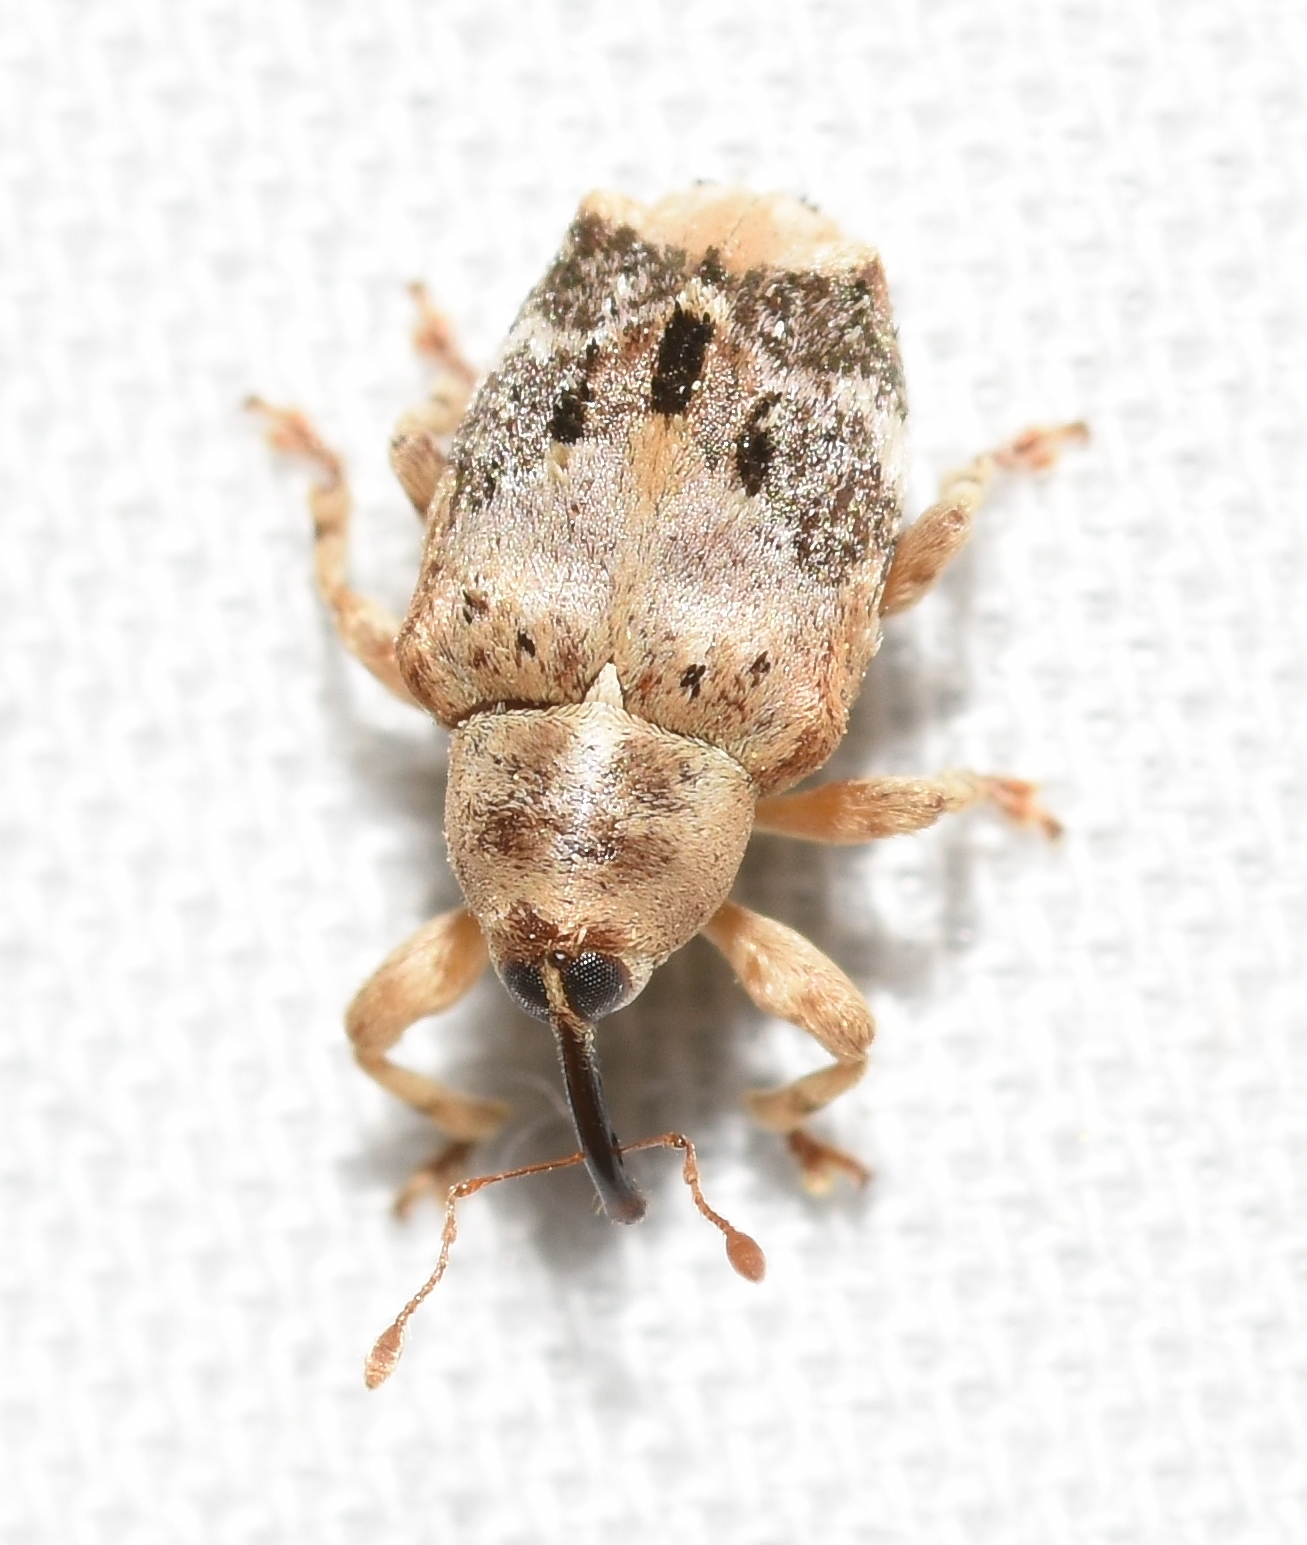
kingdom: Animalia
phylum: Arthropoda
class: Insecta
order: Coleoptera
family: Curculionidae
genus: Lignyodes
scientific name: Lignyodes pallidus
